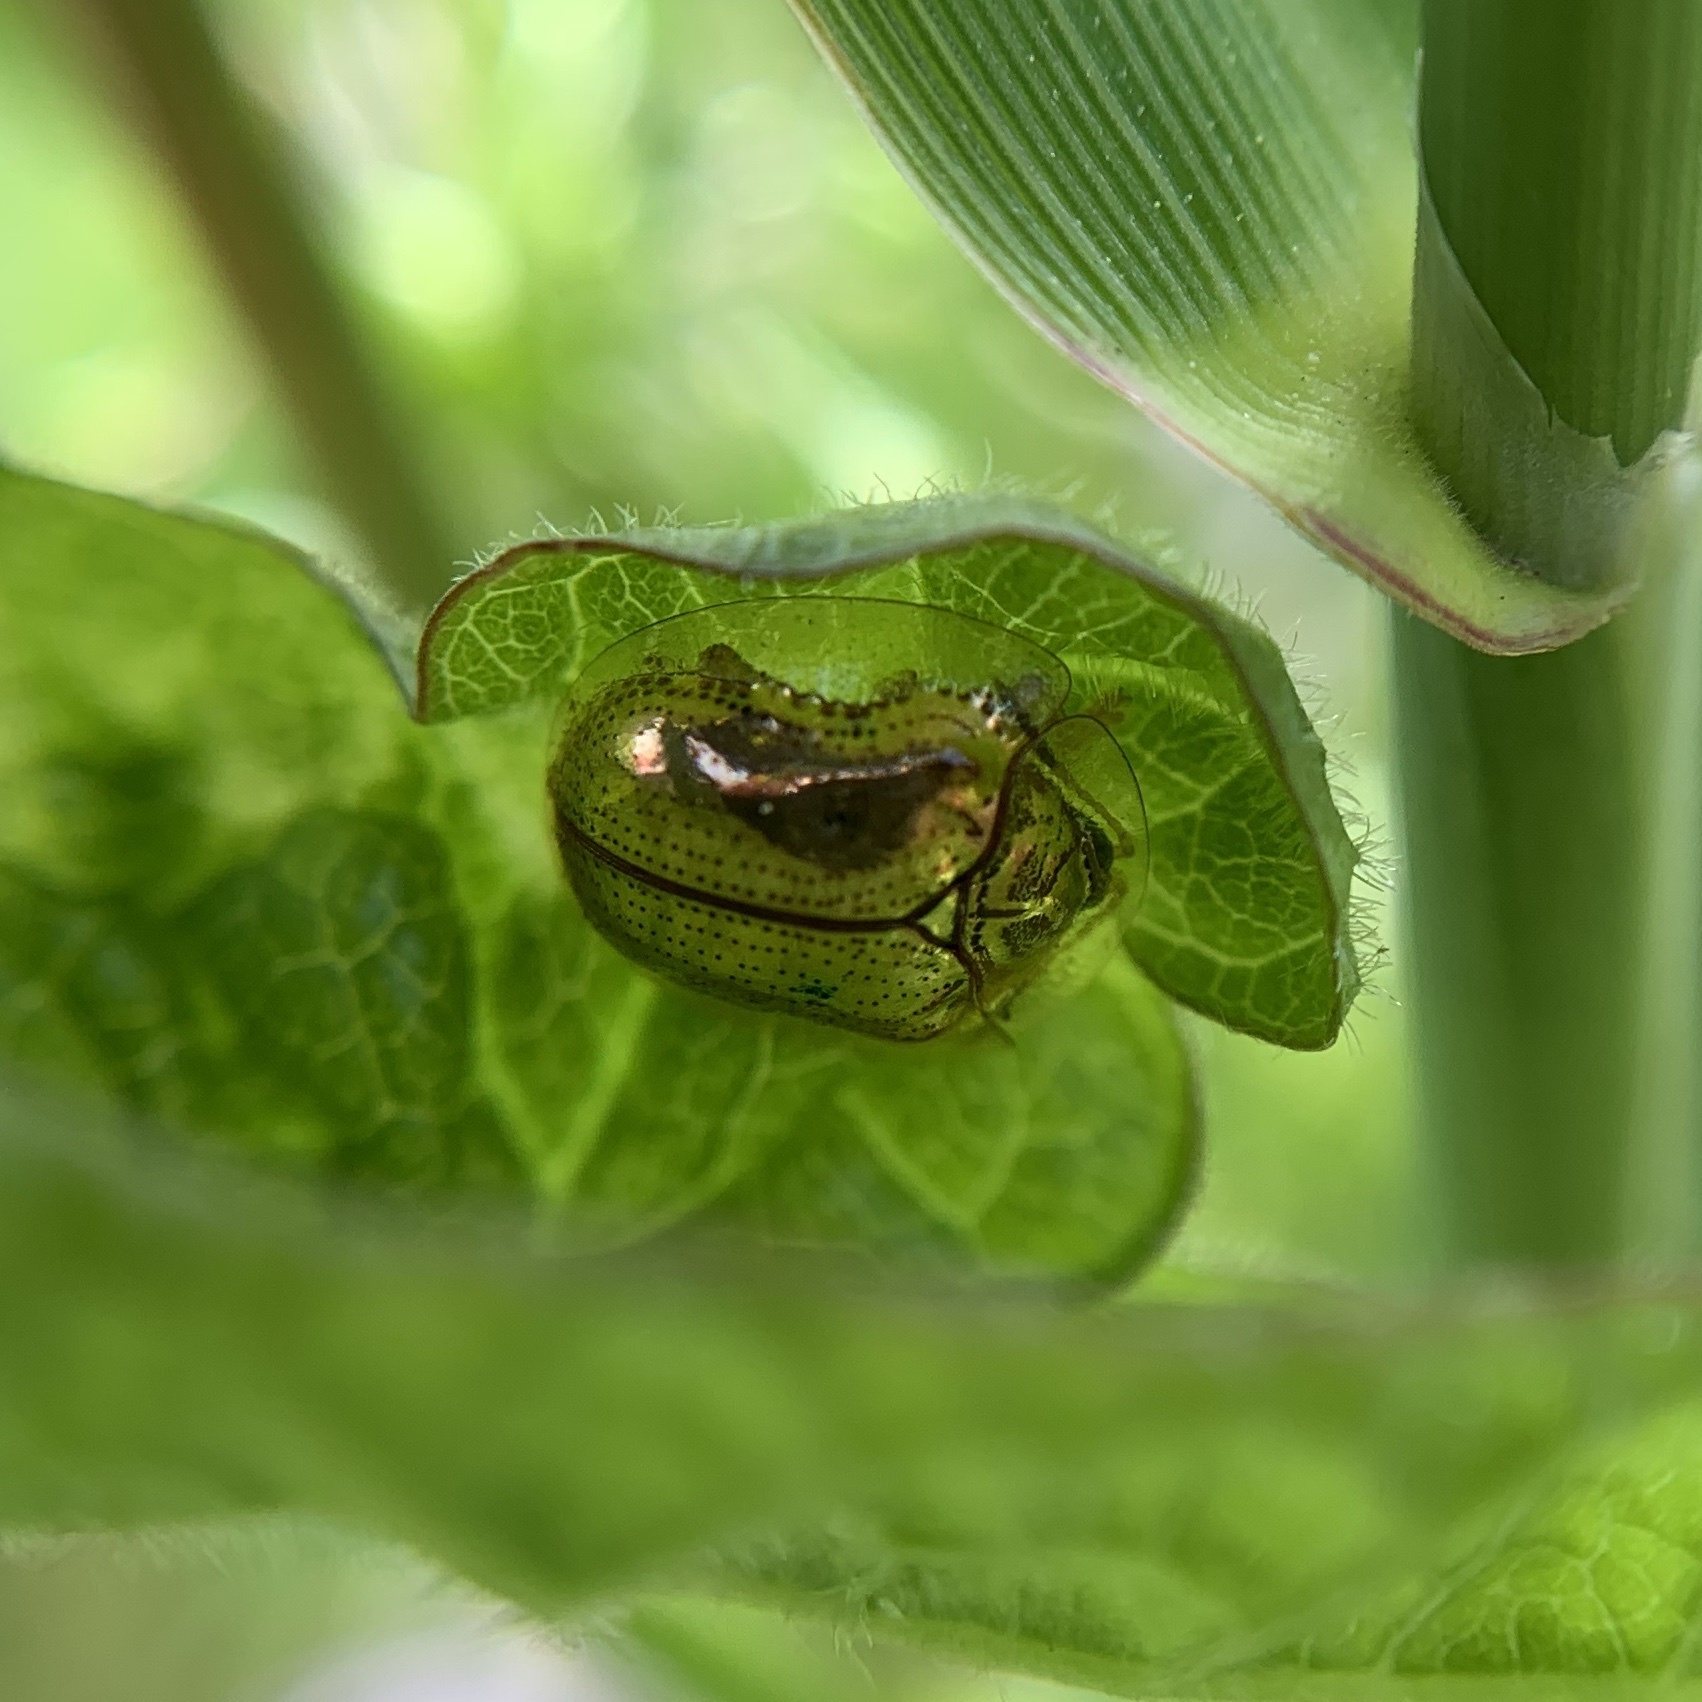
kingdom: Animalia
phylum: Arthropoda
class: Insecta
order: Coleoptera
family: Chrysomelidae
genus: Charidotella
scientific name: Charidotella sexpunctata
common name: Golden tortoise beetle
